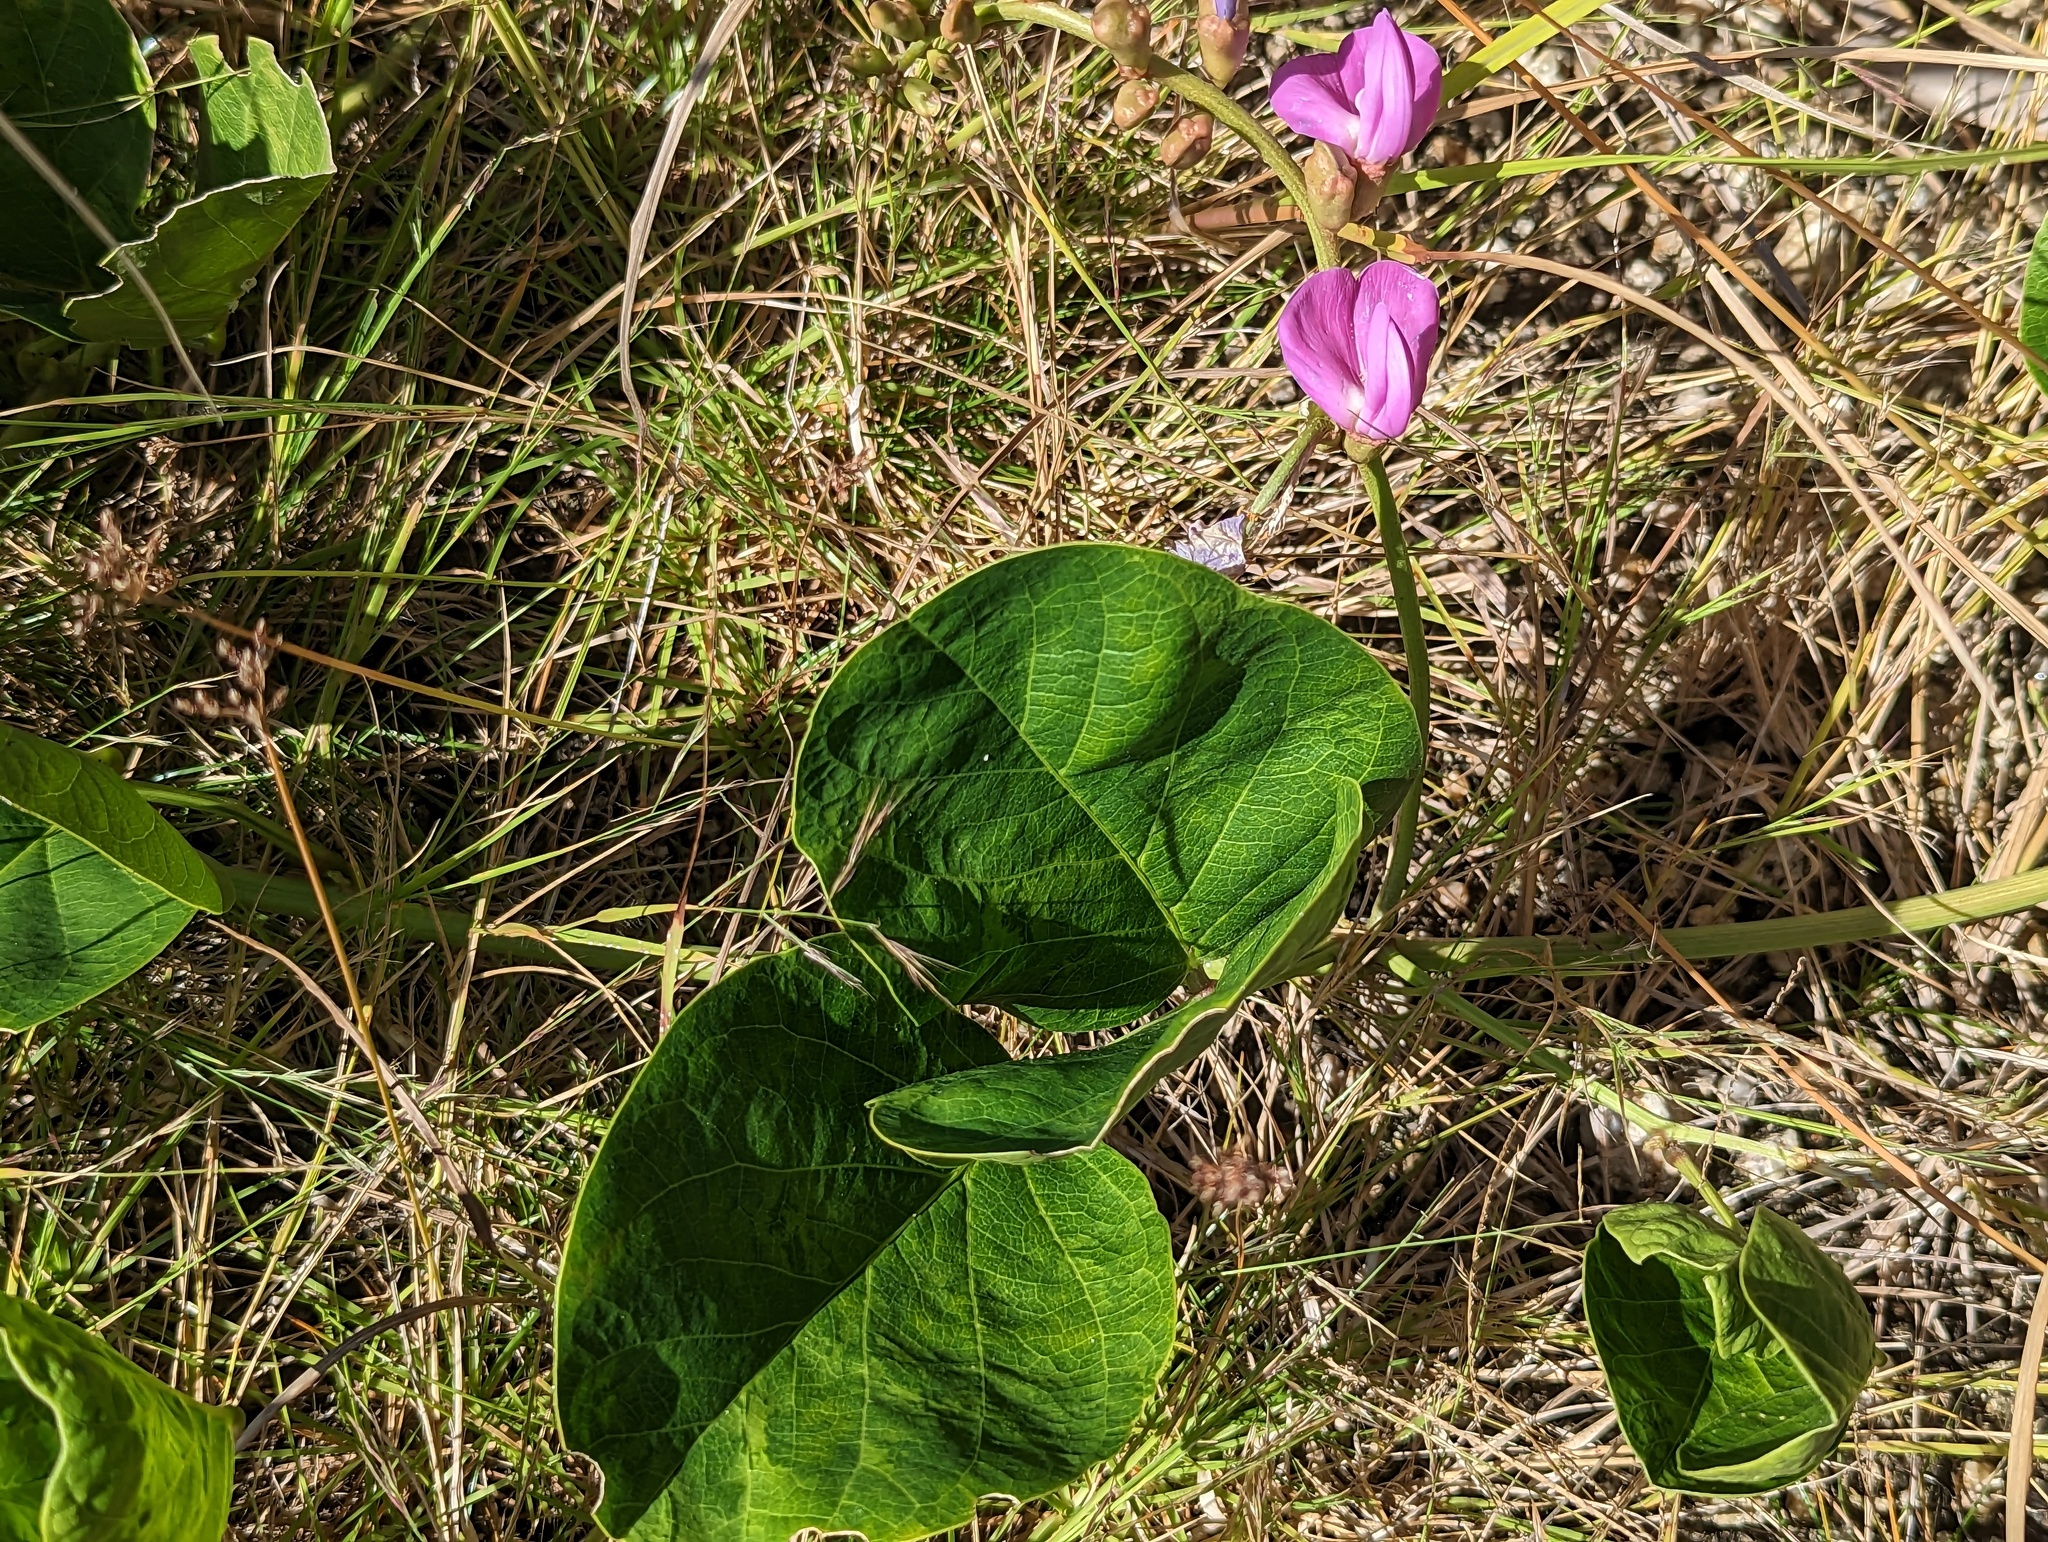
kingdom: Plantae
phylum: Tracheophyta
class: Magnoliopsida
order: Fabales
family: Fabaceae
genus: Canavalia
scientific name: Canavalia rosea
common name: Beach-bean
